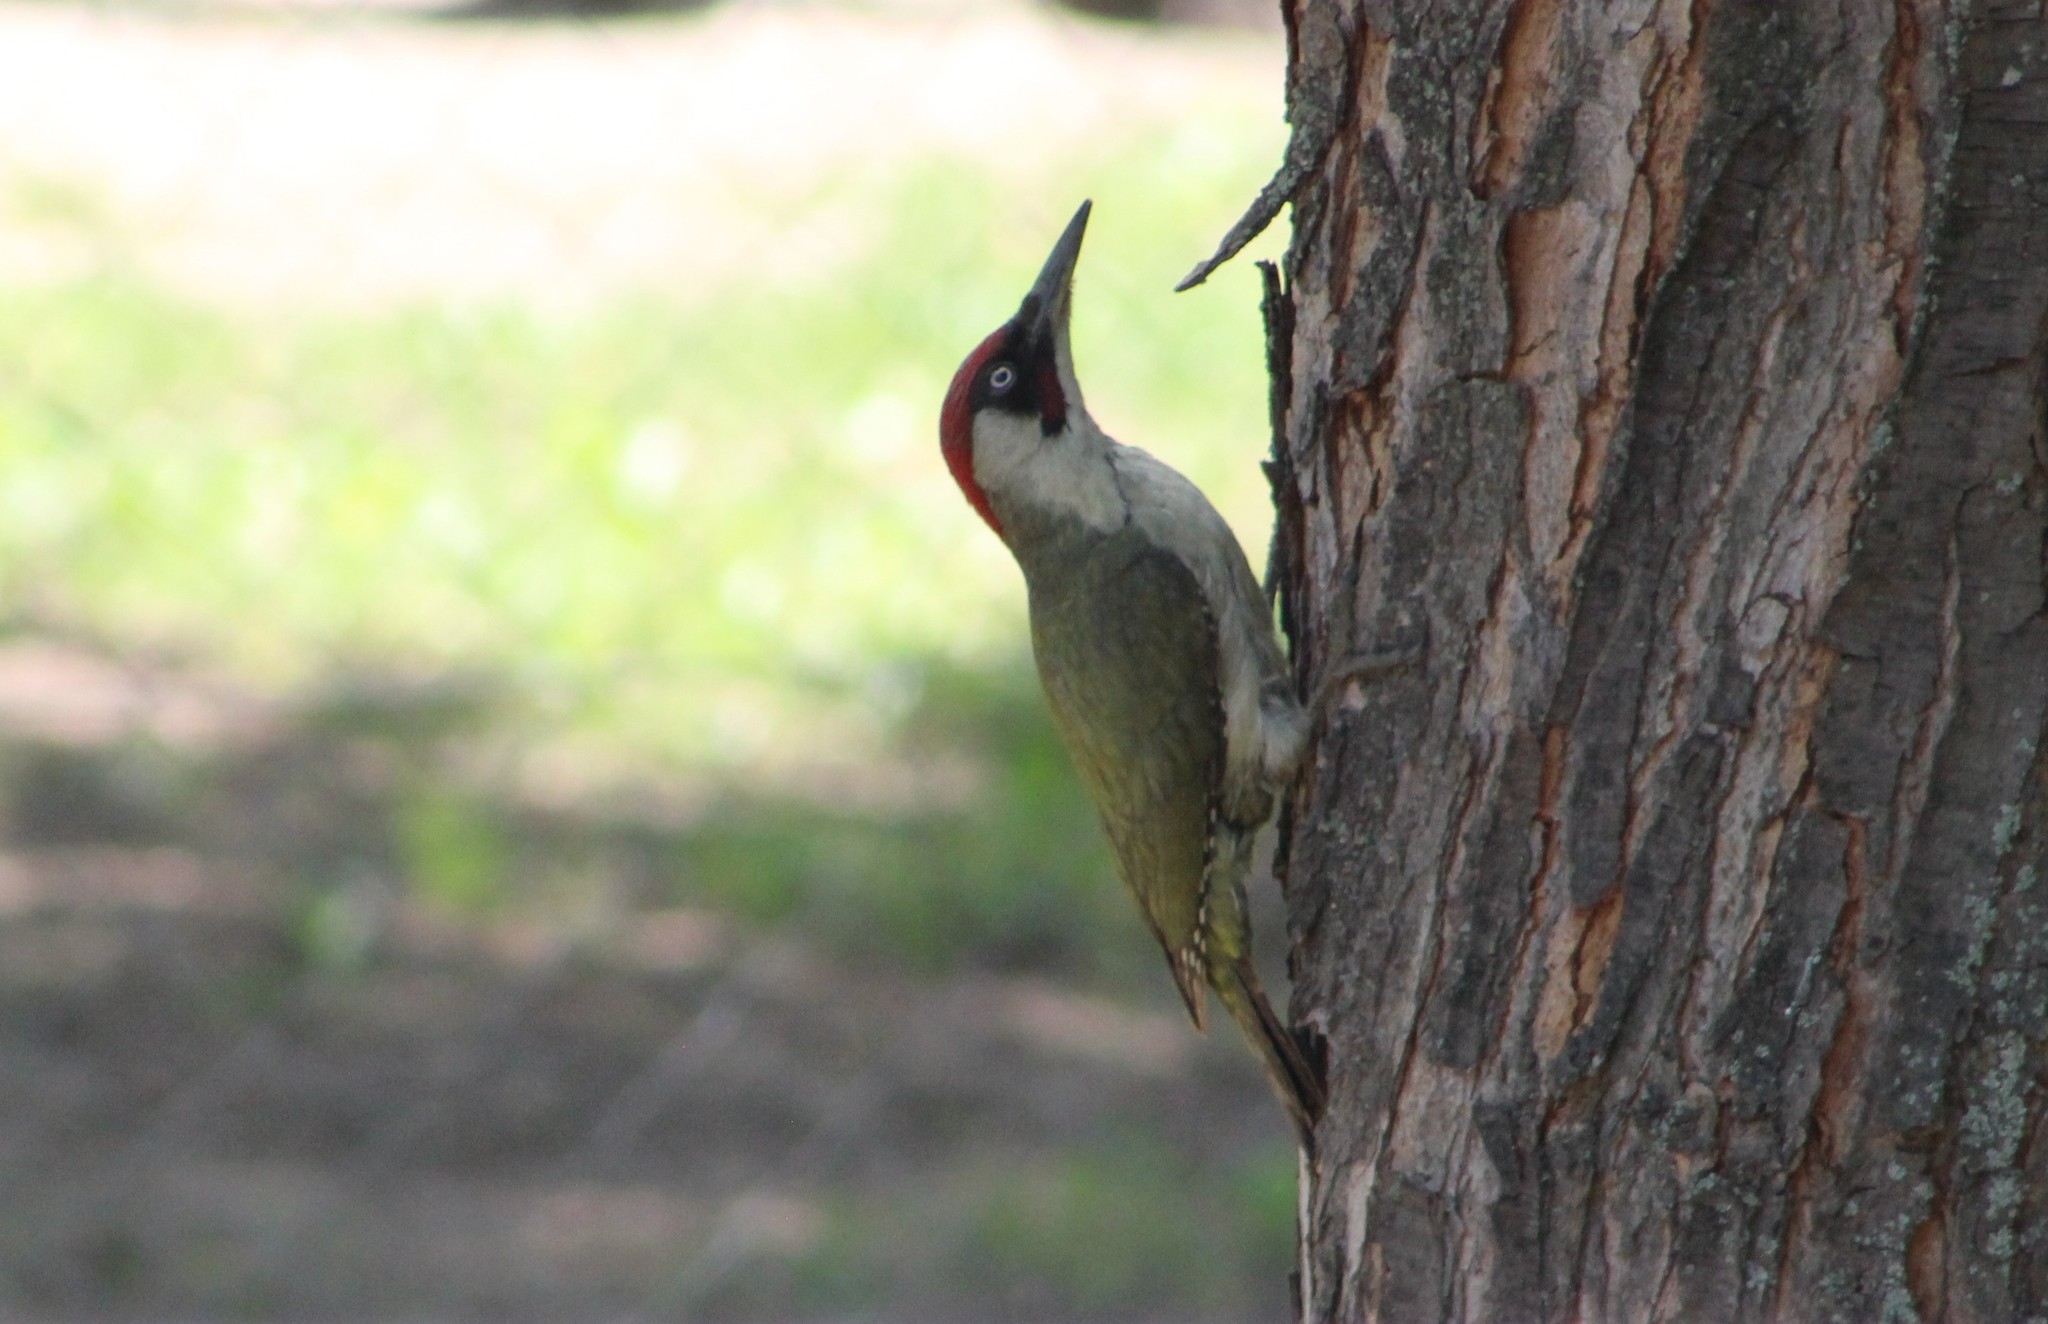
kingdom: Animalia
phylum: Chordata
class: Aves
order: Piciformes
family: Picidae
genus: Picus
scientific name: Picus viridis
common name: European green woodpecker
